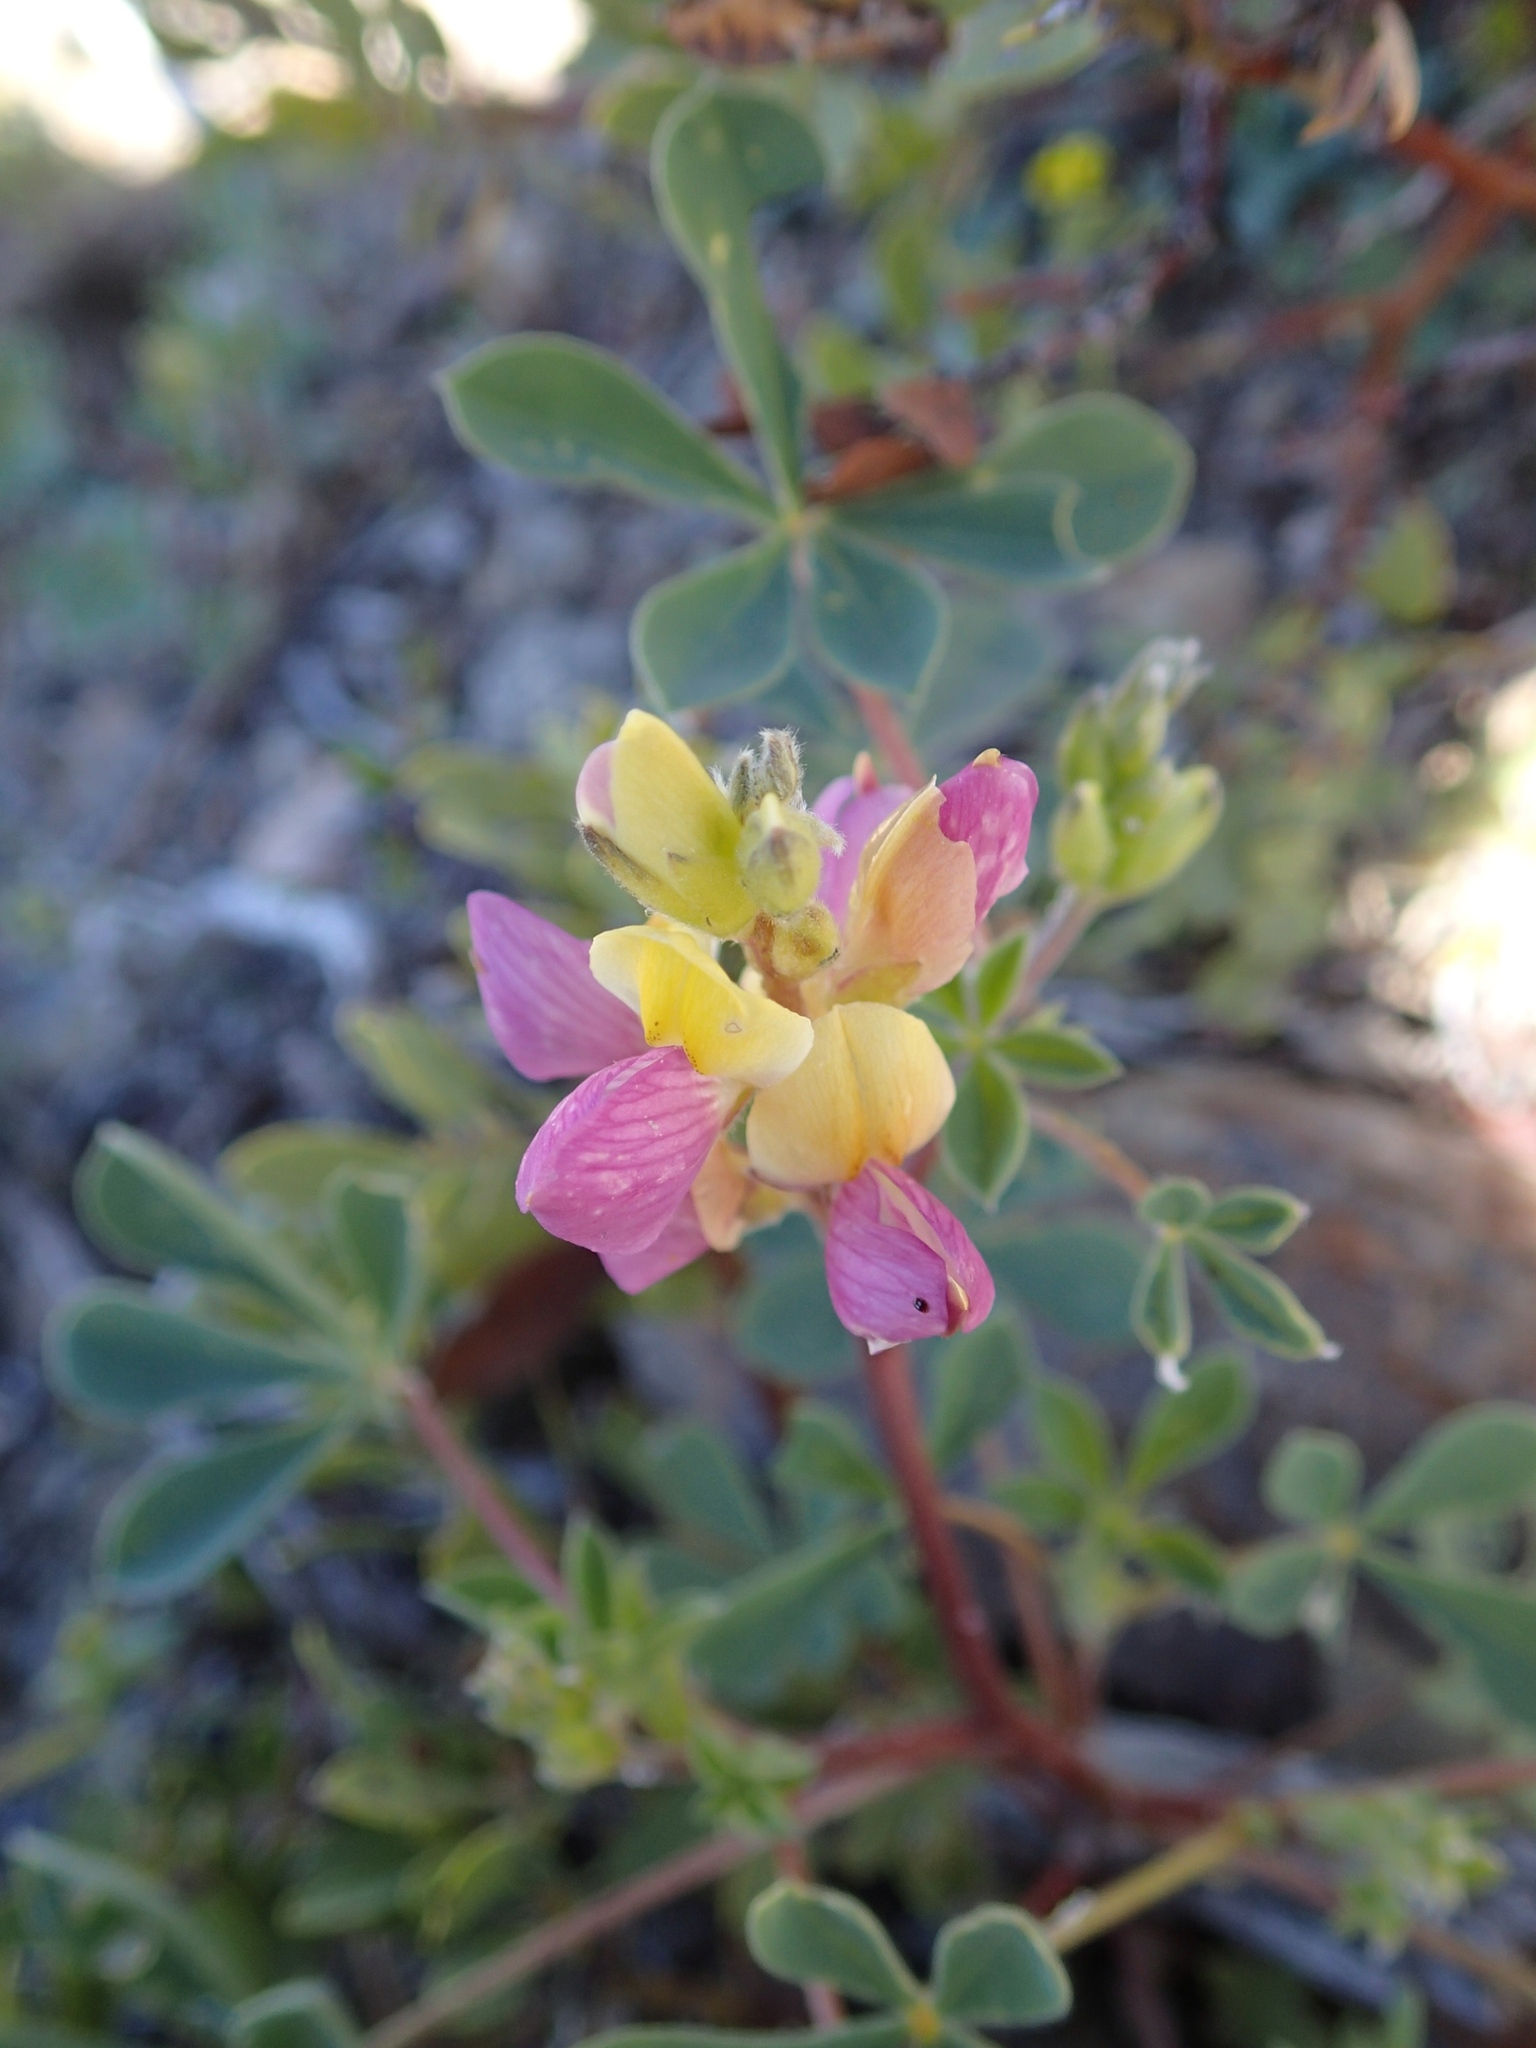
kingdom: Plantae
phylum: Tracheophyta
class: Magnoliopsida
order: Fabales
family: Fabaceae
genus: Lupinus
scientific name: Lupinus stiversii
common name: Harlequin lupine
